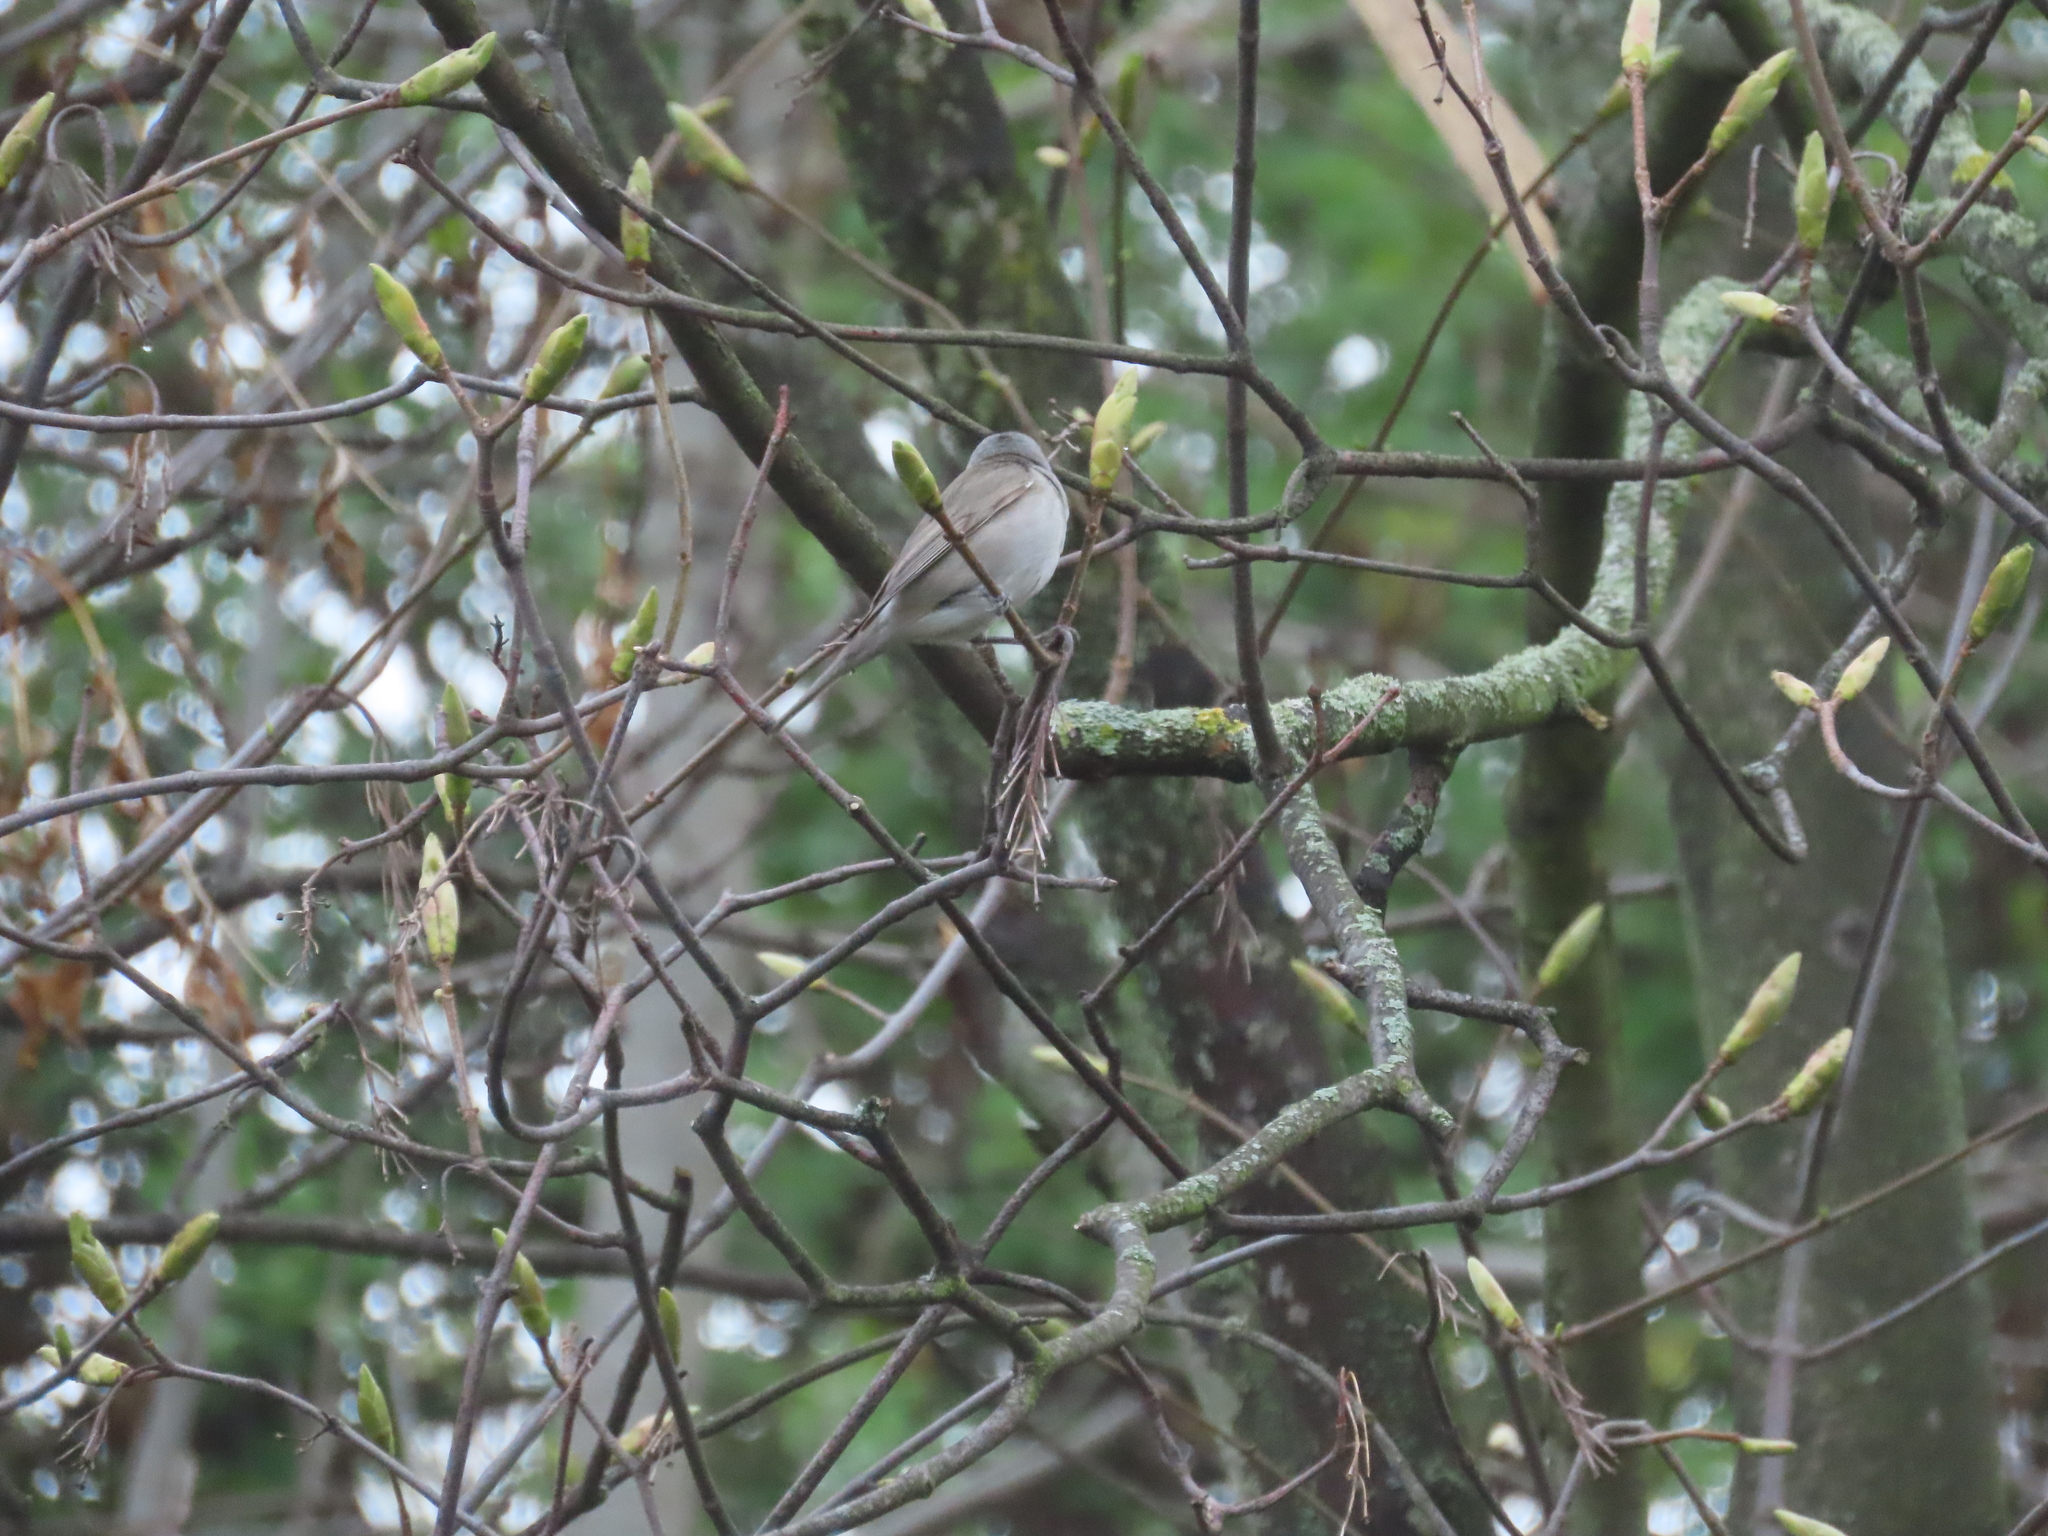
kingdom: Animalia
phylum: Chordata
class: Aves
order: Passeriformes
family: Sylviidae
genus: Sylvia
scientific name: Sylvia atricapilla
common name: Eurasian blackcap
